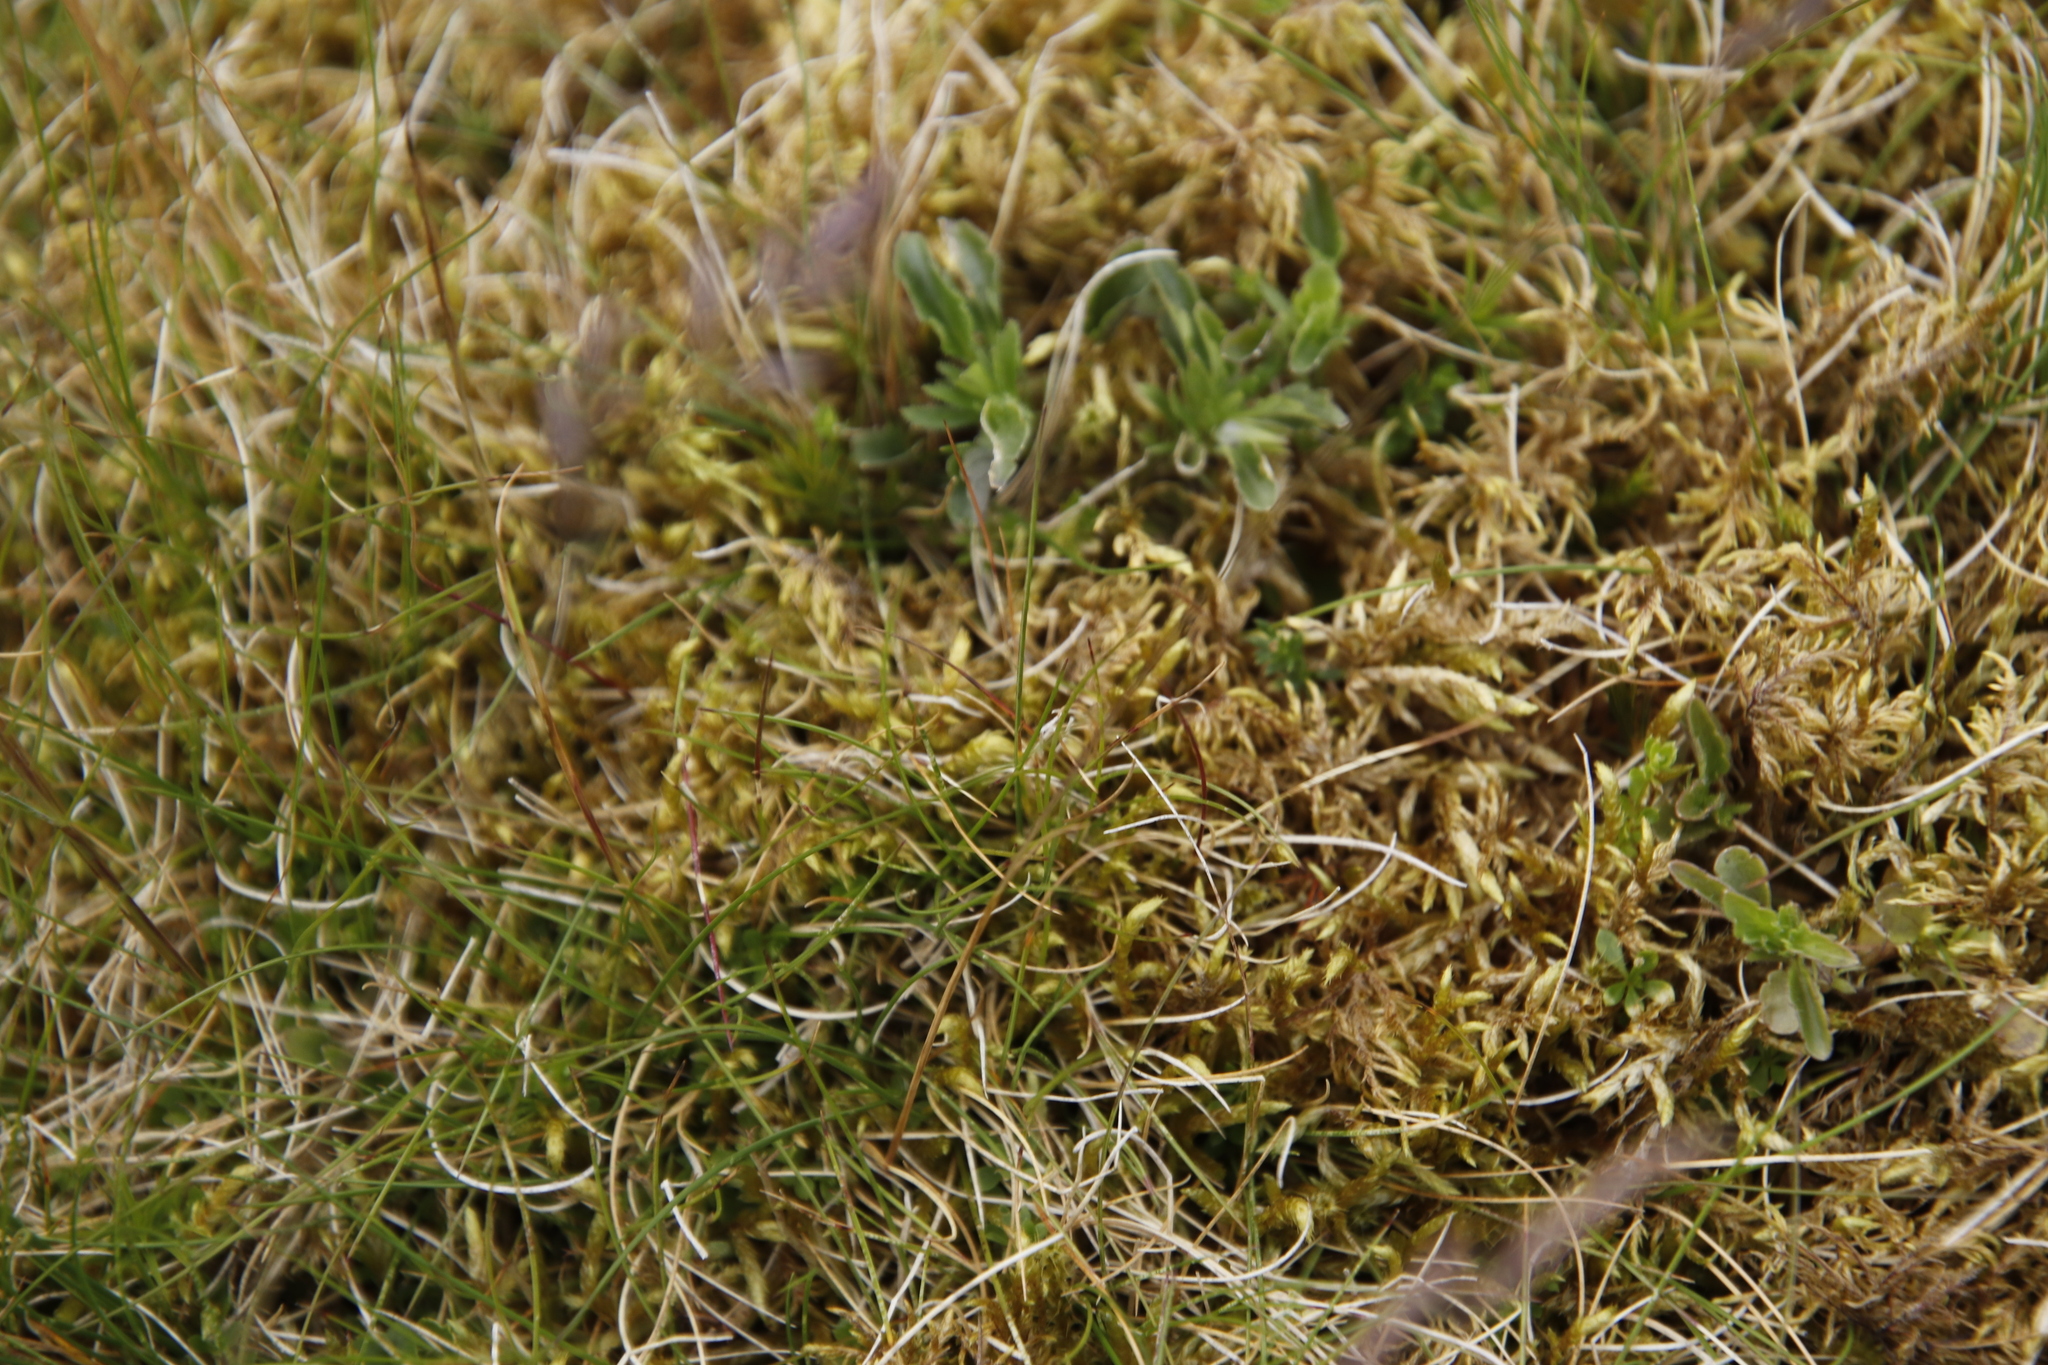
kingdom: Plantae
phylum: Bryophyta
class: Bryopsida
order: Hypnales
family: Brachytheciaceae
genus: Pseudoscleropodium
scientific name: Pseudoscleropodium purum
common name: Neat feather-moss
